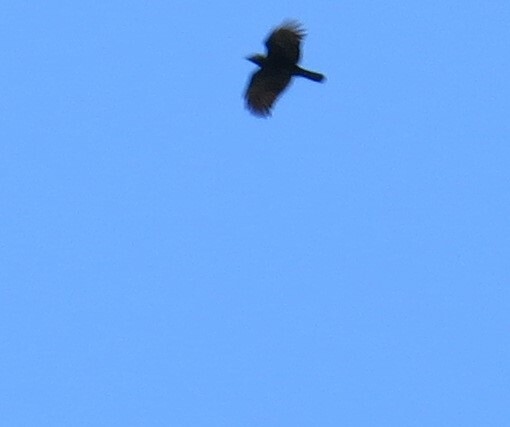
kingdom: Animalia
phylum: Chordata
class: Aves
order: Passeriformes
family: Corvidae
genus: Corvus
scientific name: Corvus brachyrhynchos
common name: American crow
